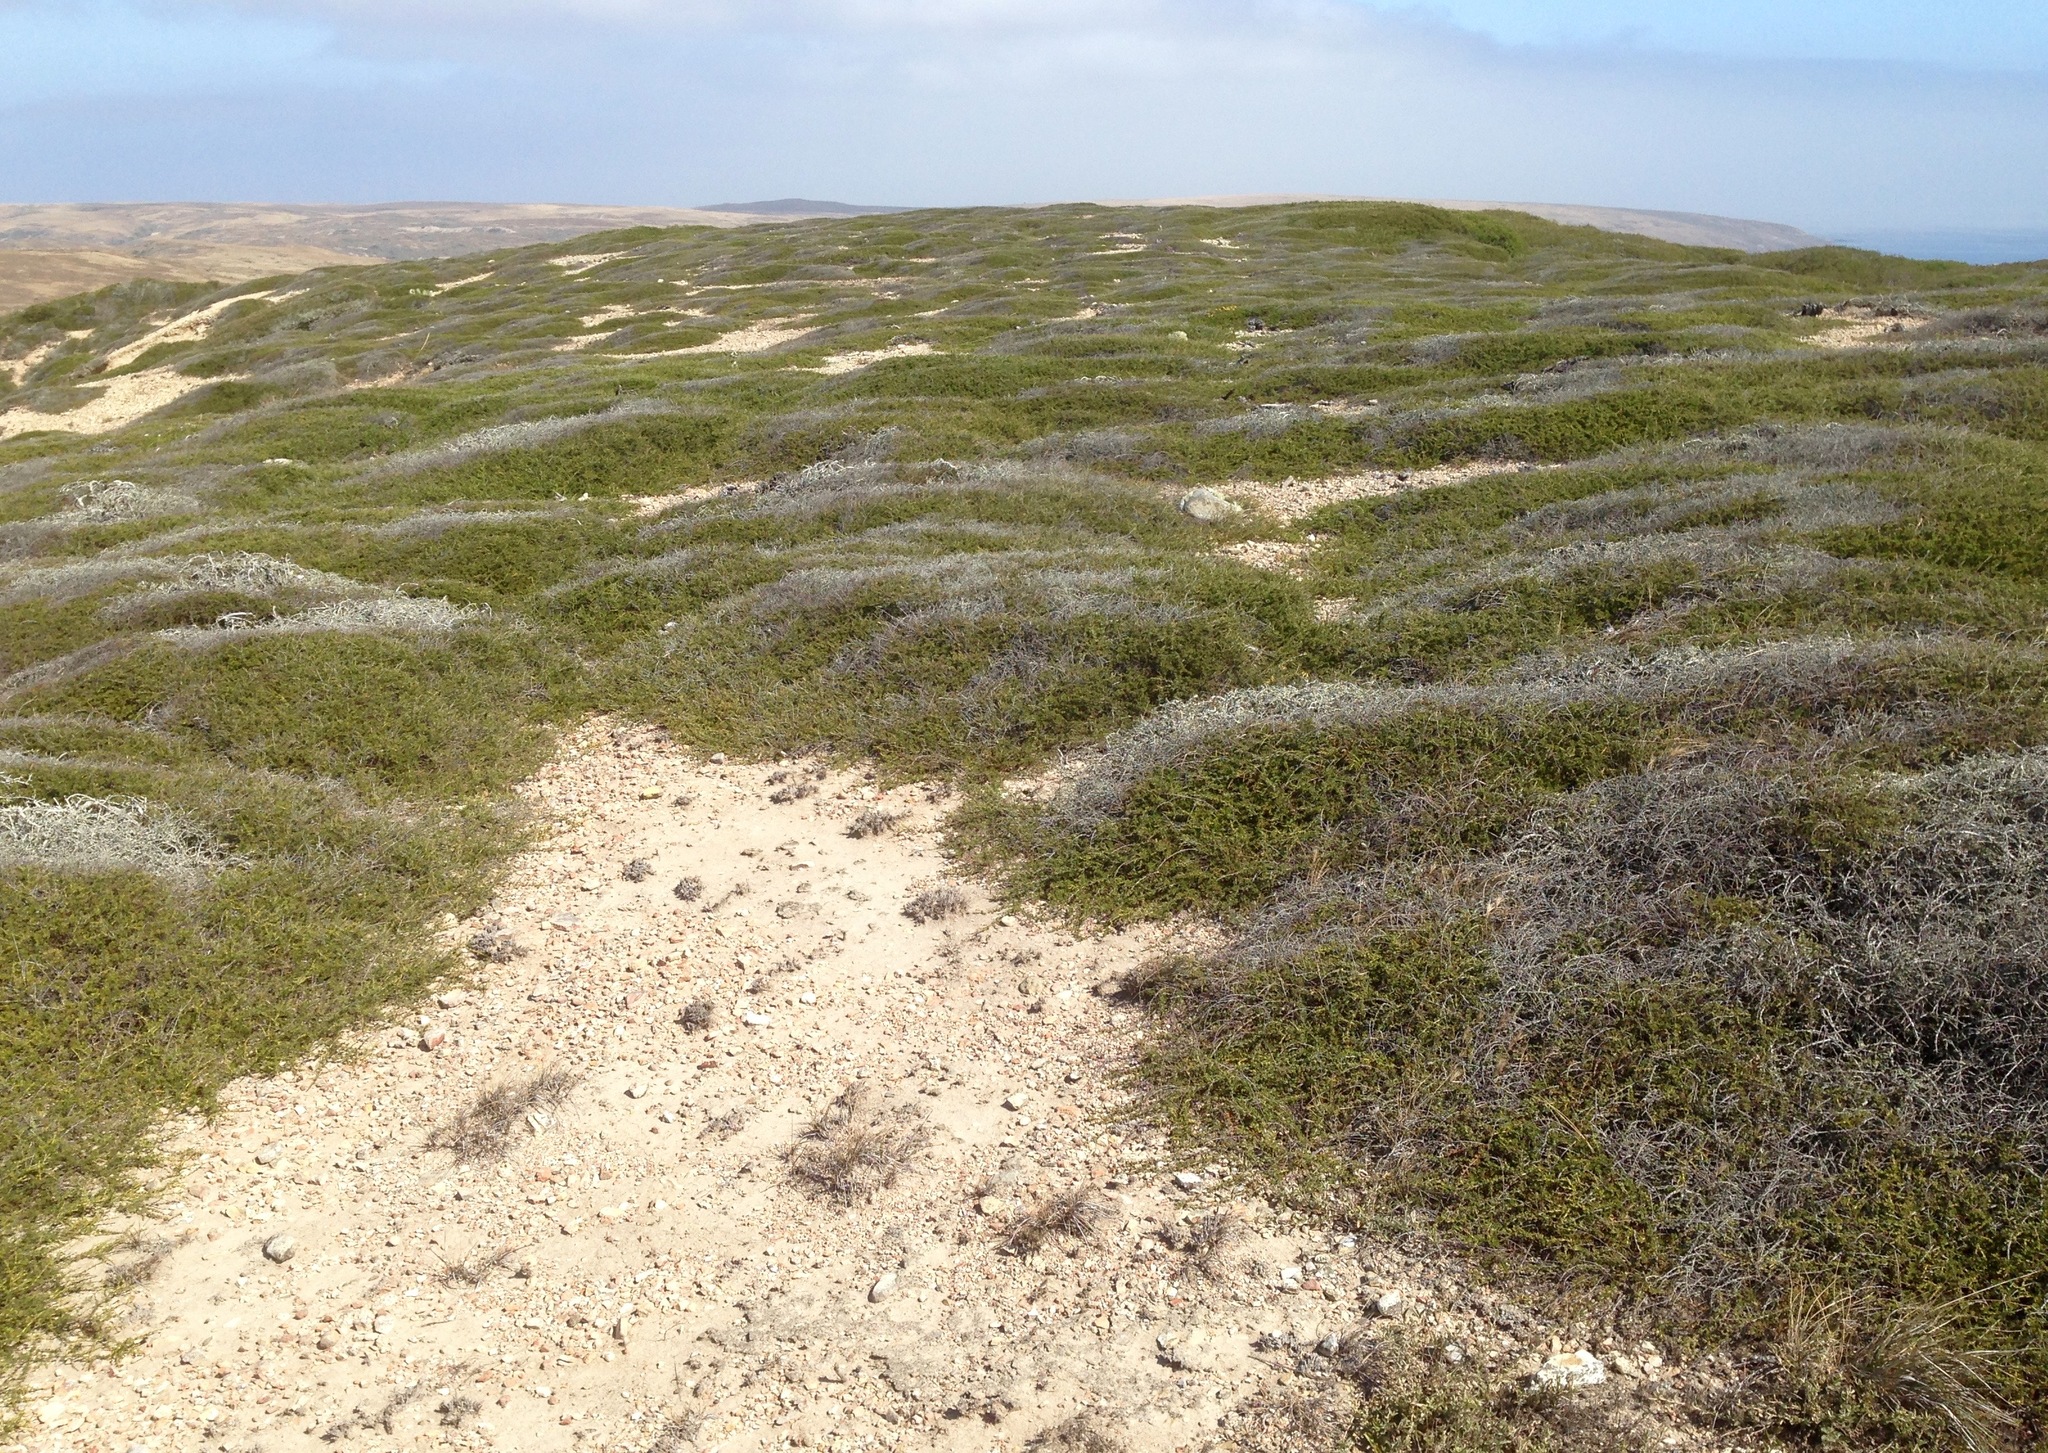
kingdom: Plantae
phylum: Tracheophyta
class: Magnoliopsida
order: Rosales
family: Rosaceae
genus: Adenostoma
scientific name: Adenostoma fasciculatum
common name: Chamise
